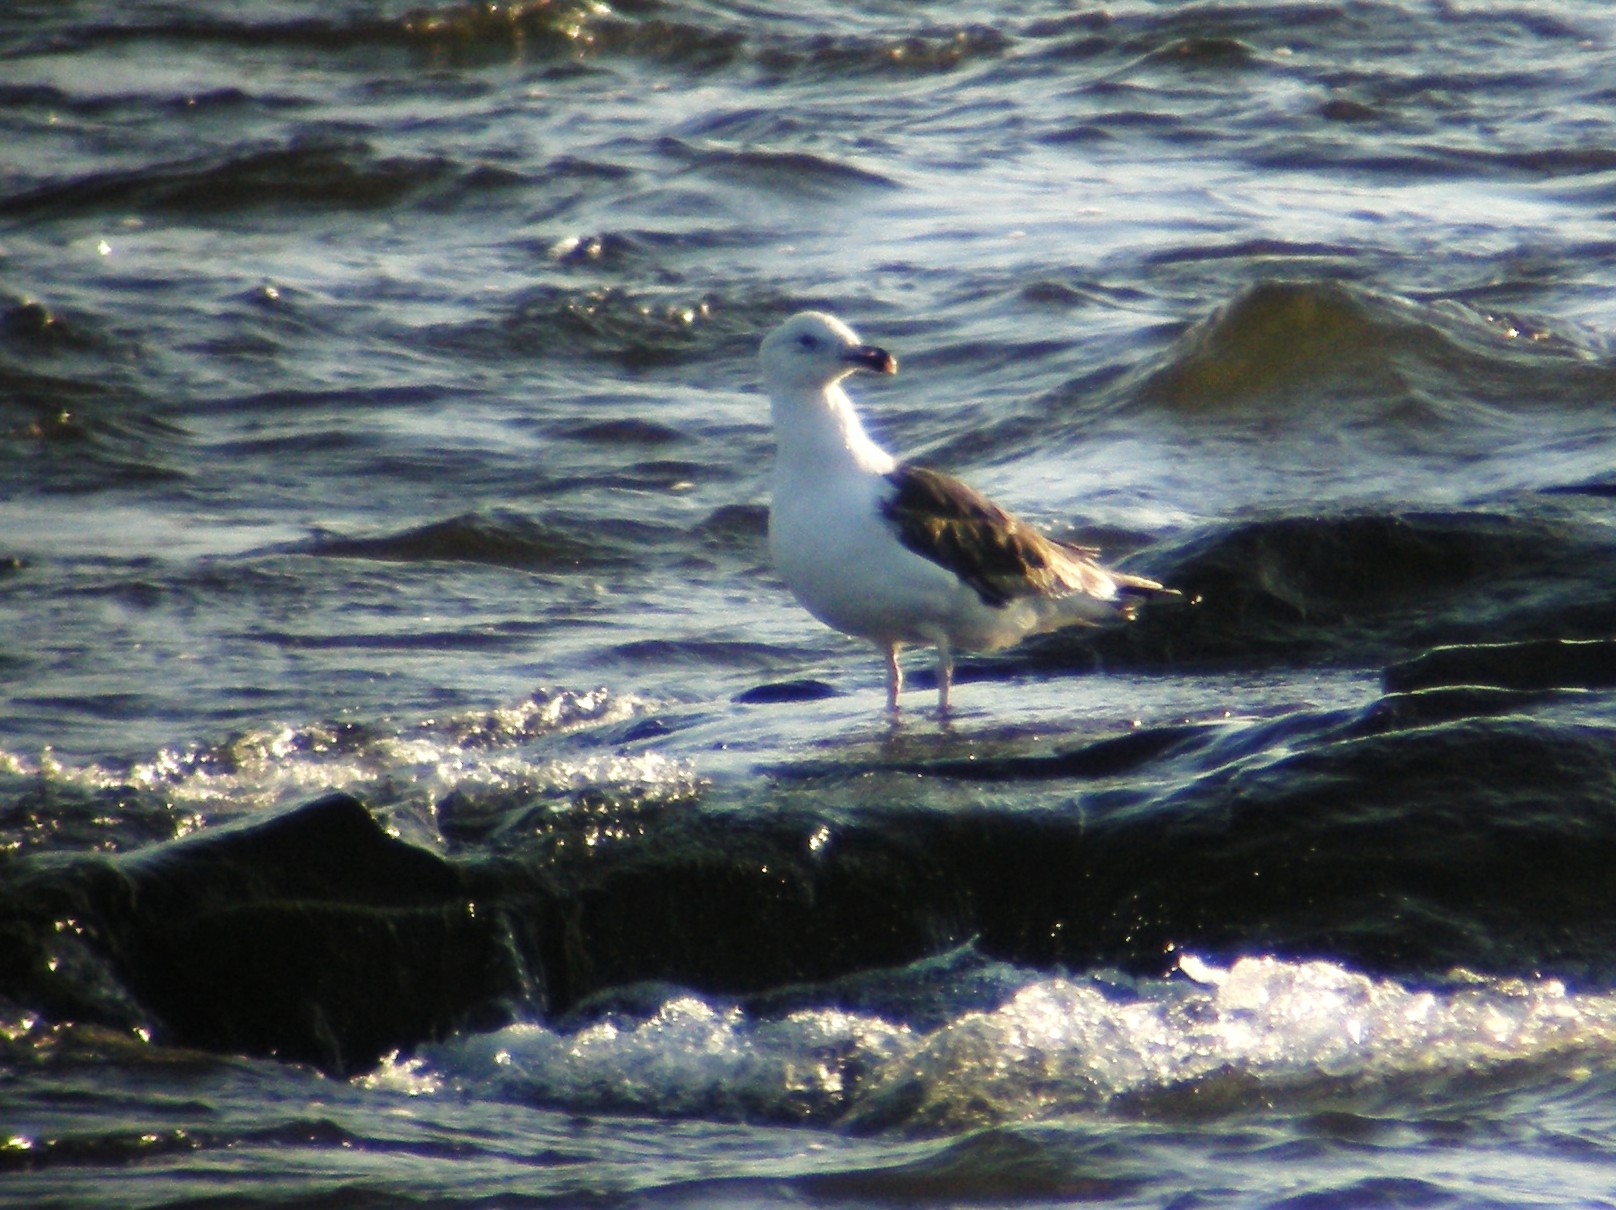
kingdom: Animalia
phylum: Chordata
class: Aves
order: Charadriiformes
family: Laridae
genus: Larus
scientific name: Larus marinus
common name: Great black-backed gull
